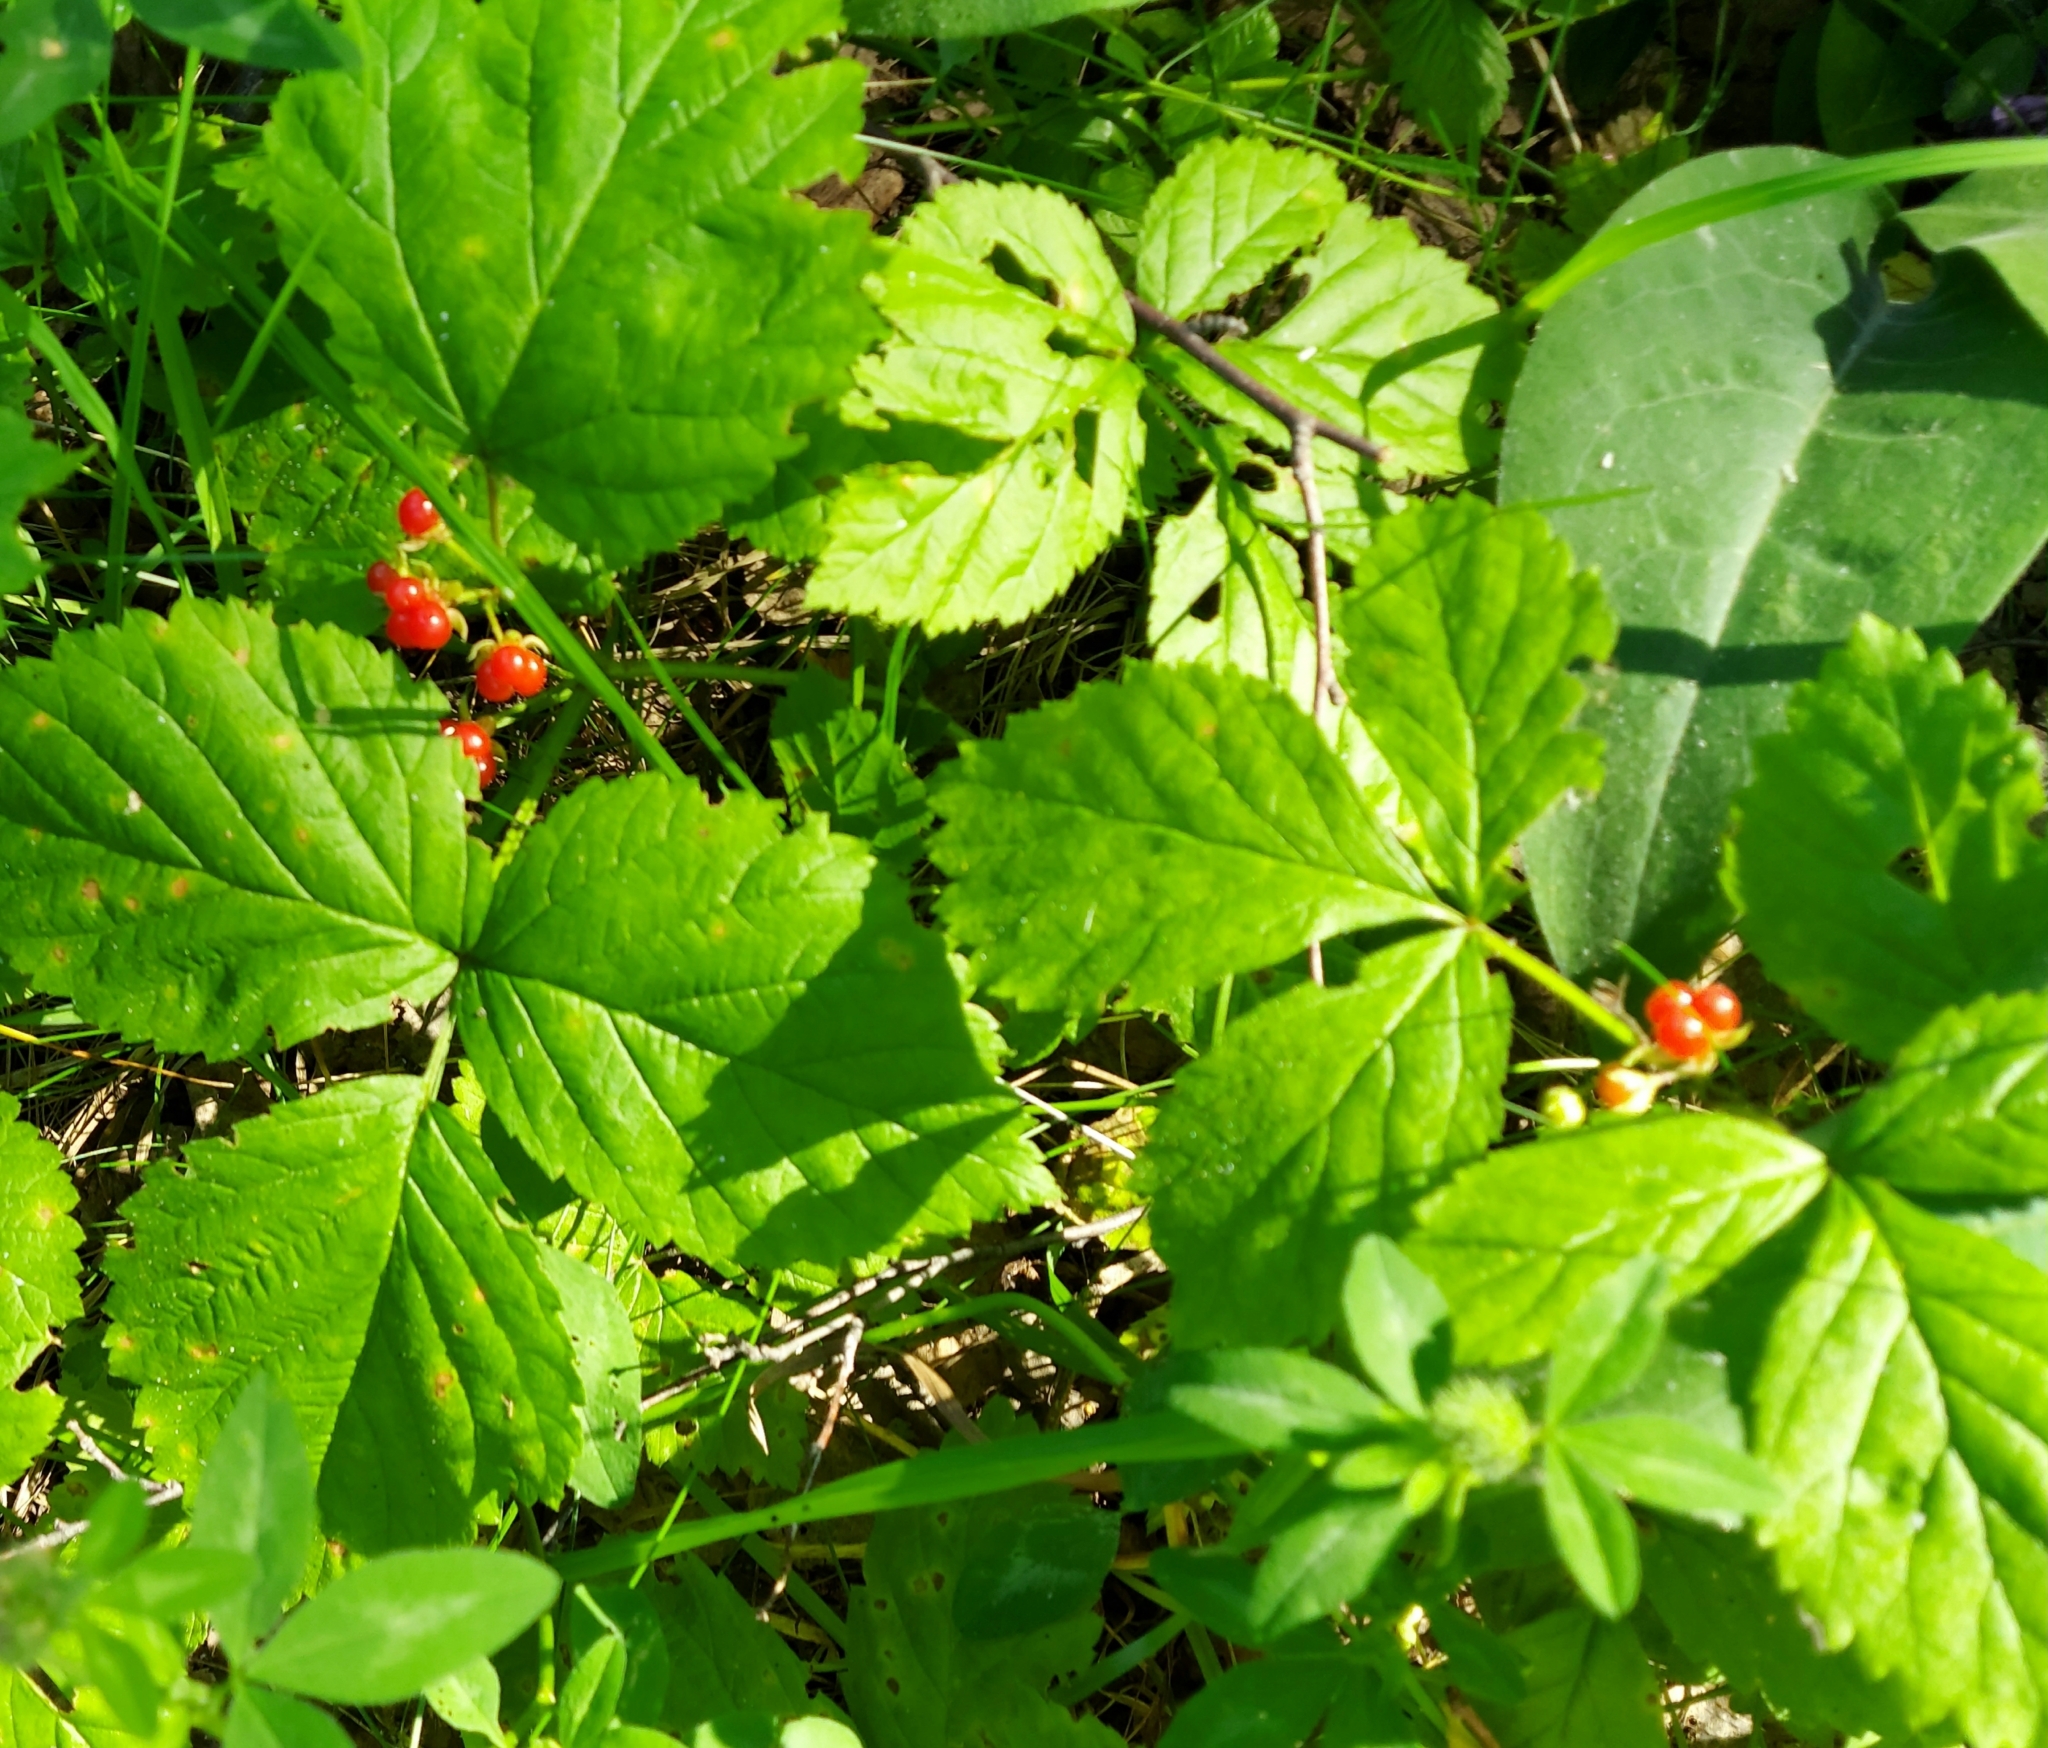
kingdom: Plantae
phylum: Tracheophyta
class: Magnoliopsida
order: Rosales
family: Rosaceae
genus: Rubus
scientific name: Rubus saxatilis
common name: Stone bramble
